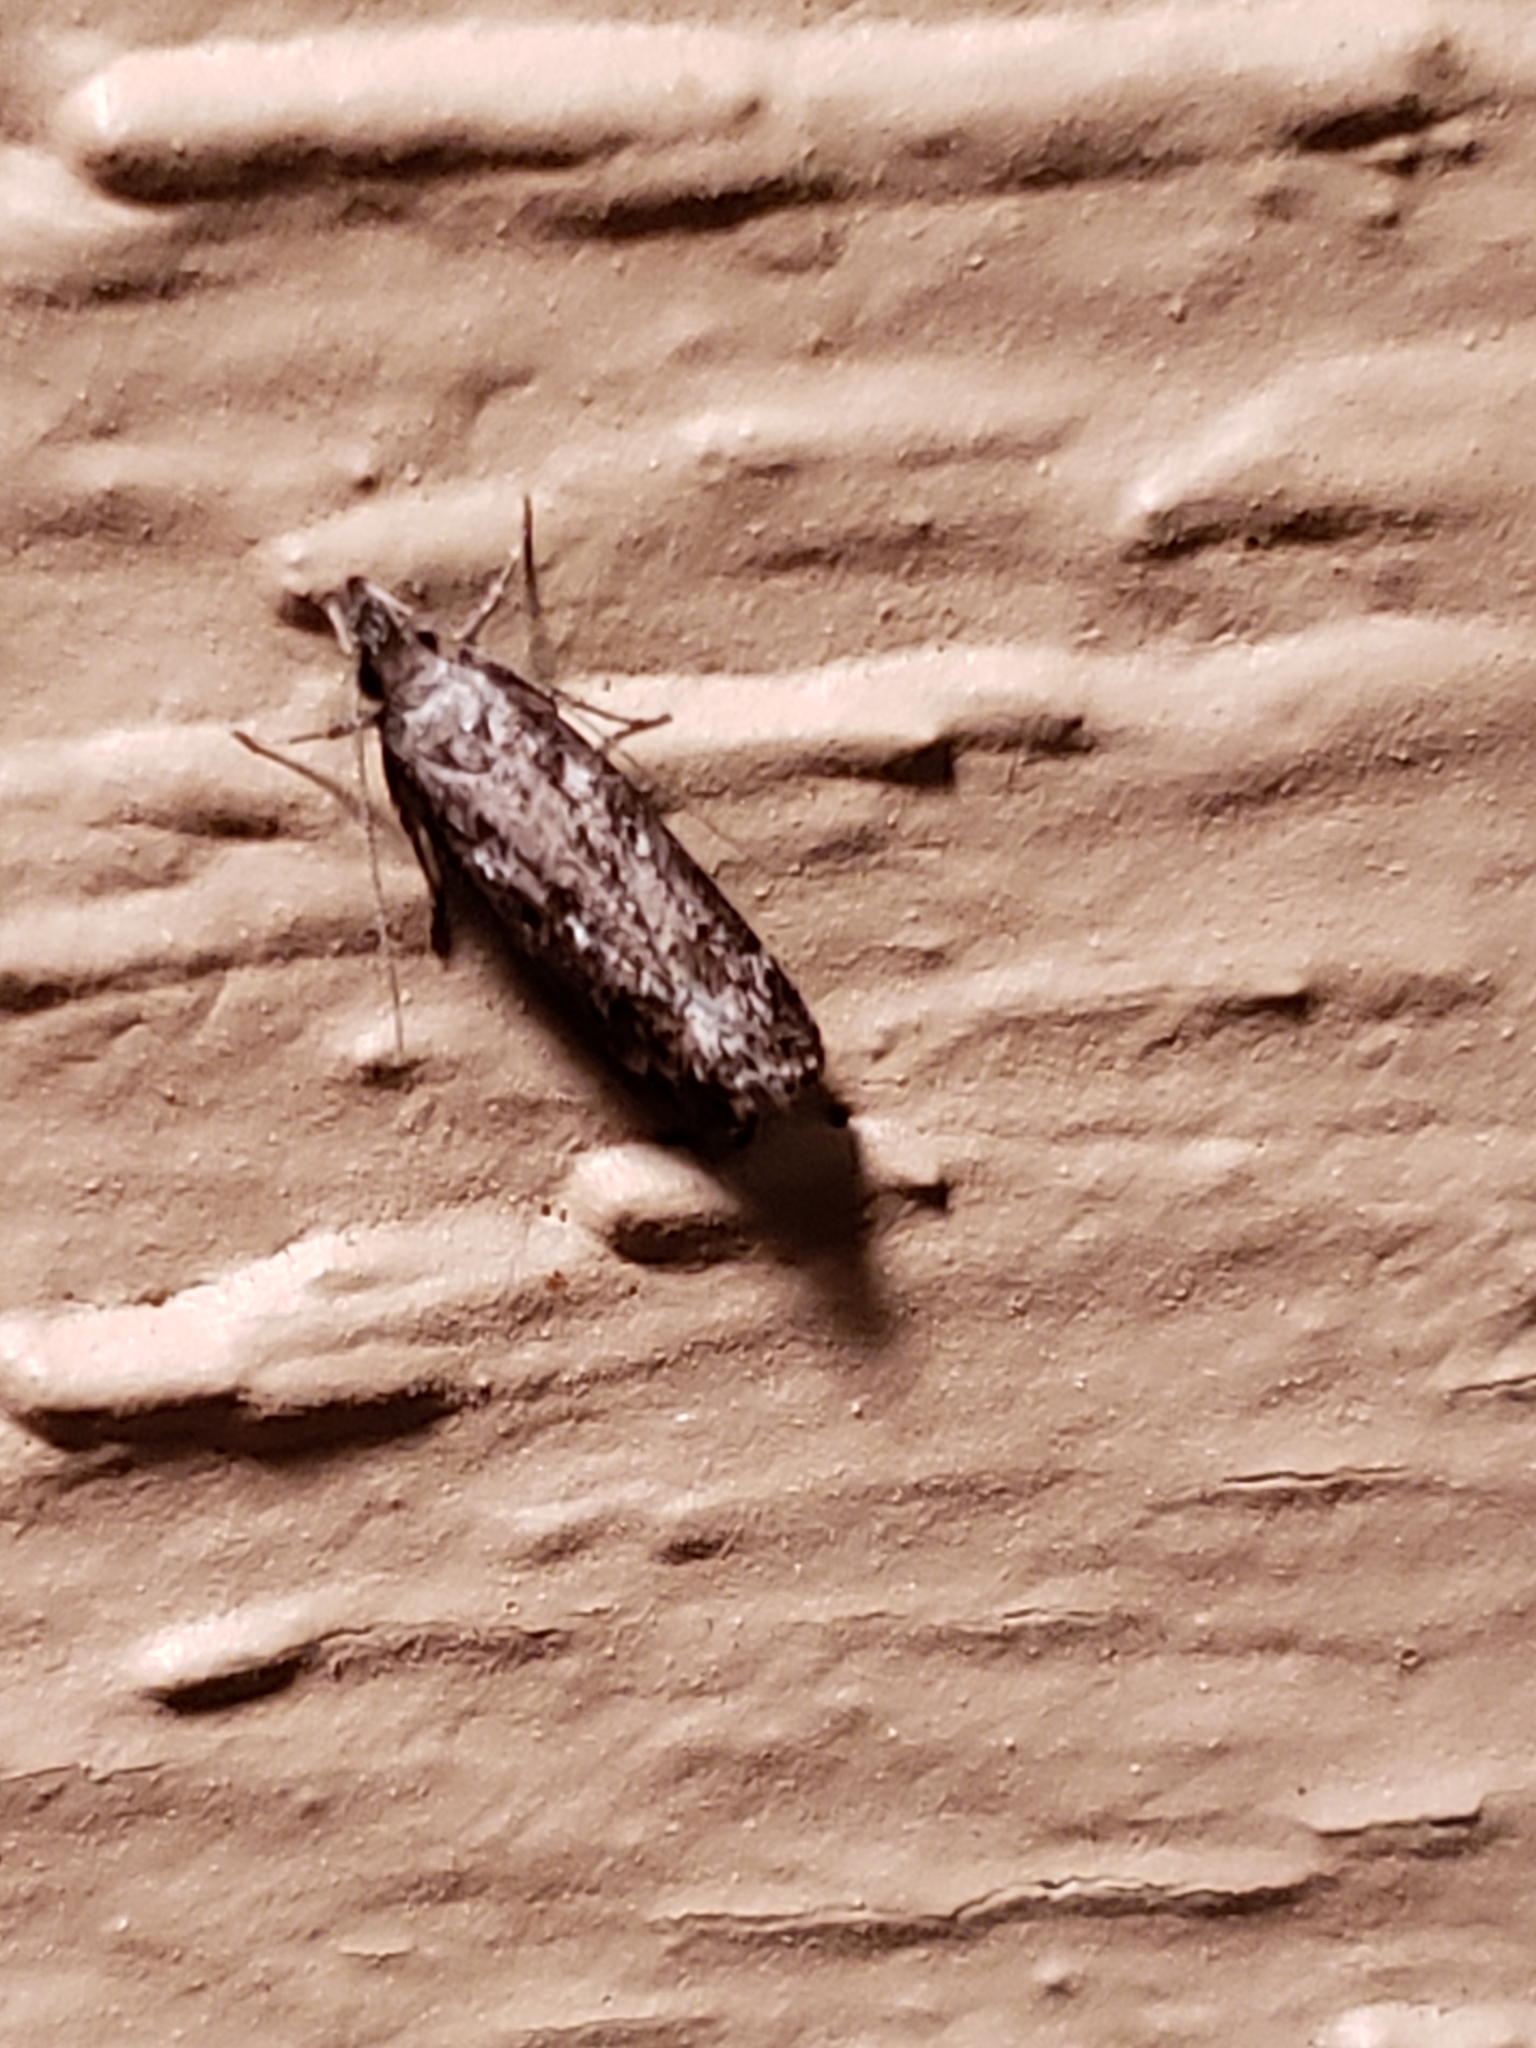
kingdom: Animalia
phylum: Arthropoda
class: Insecta
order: Lepidoptera
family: Gelechiidae
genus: Dichomeris
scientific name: Dichomeris inversella
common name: Inverse dichomeris moth
